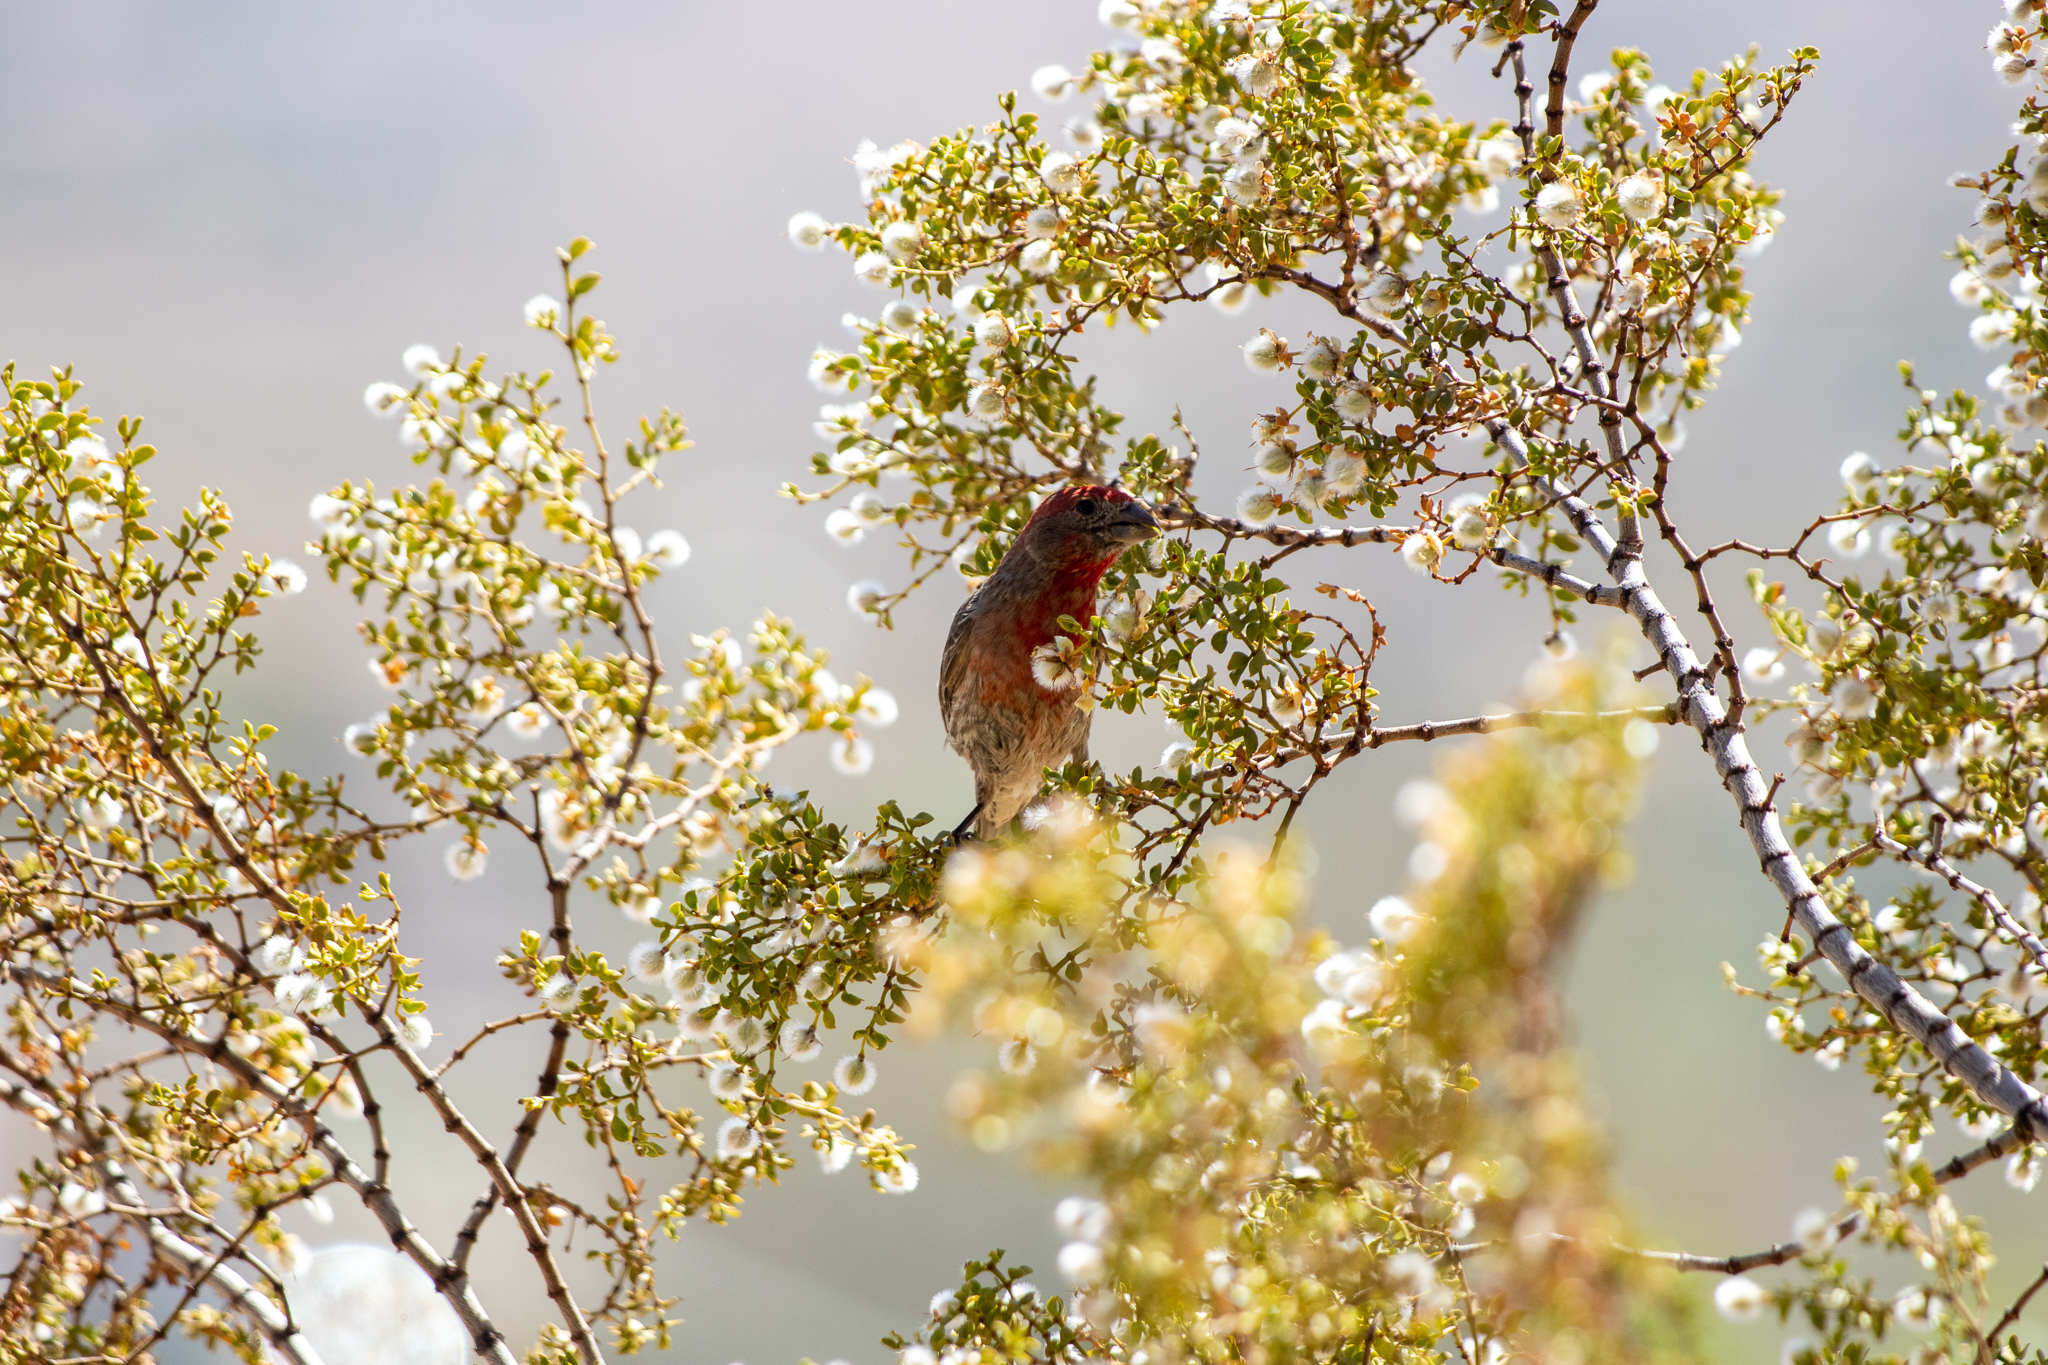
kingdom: Animalia
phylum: Chordata
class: Aves
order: Passeriformes
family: Fringillidae
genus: Haemorhous
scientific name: Haemorhous mexicanus
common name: House finch
